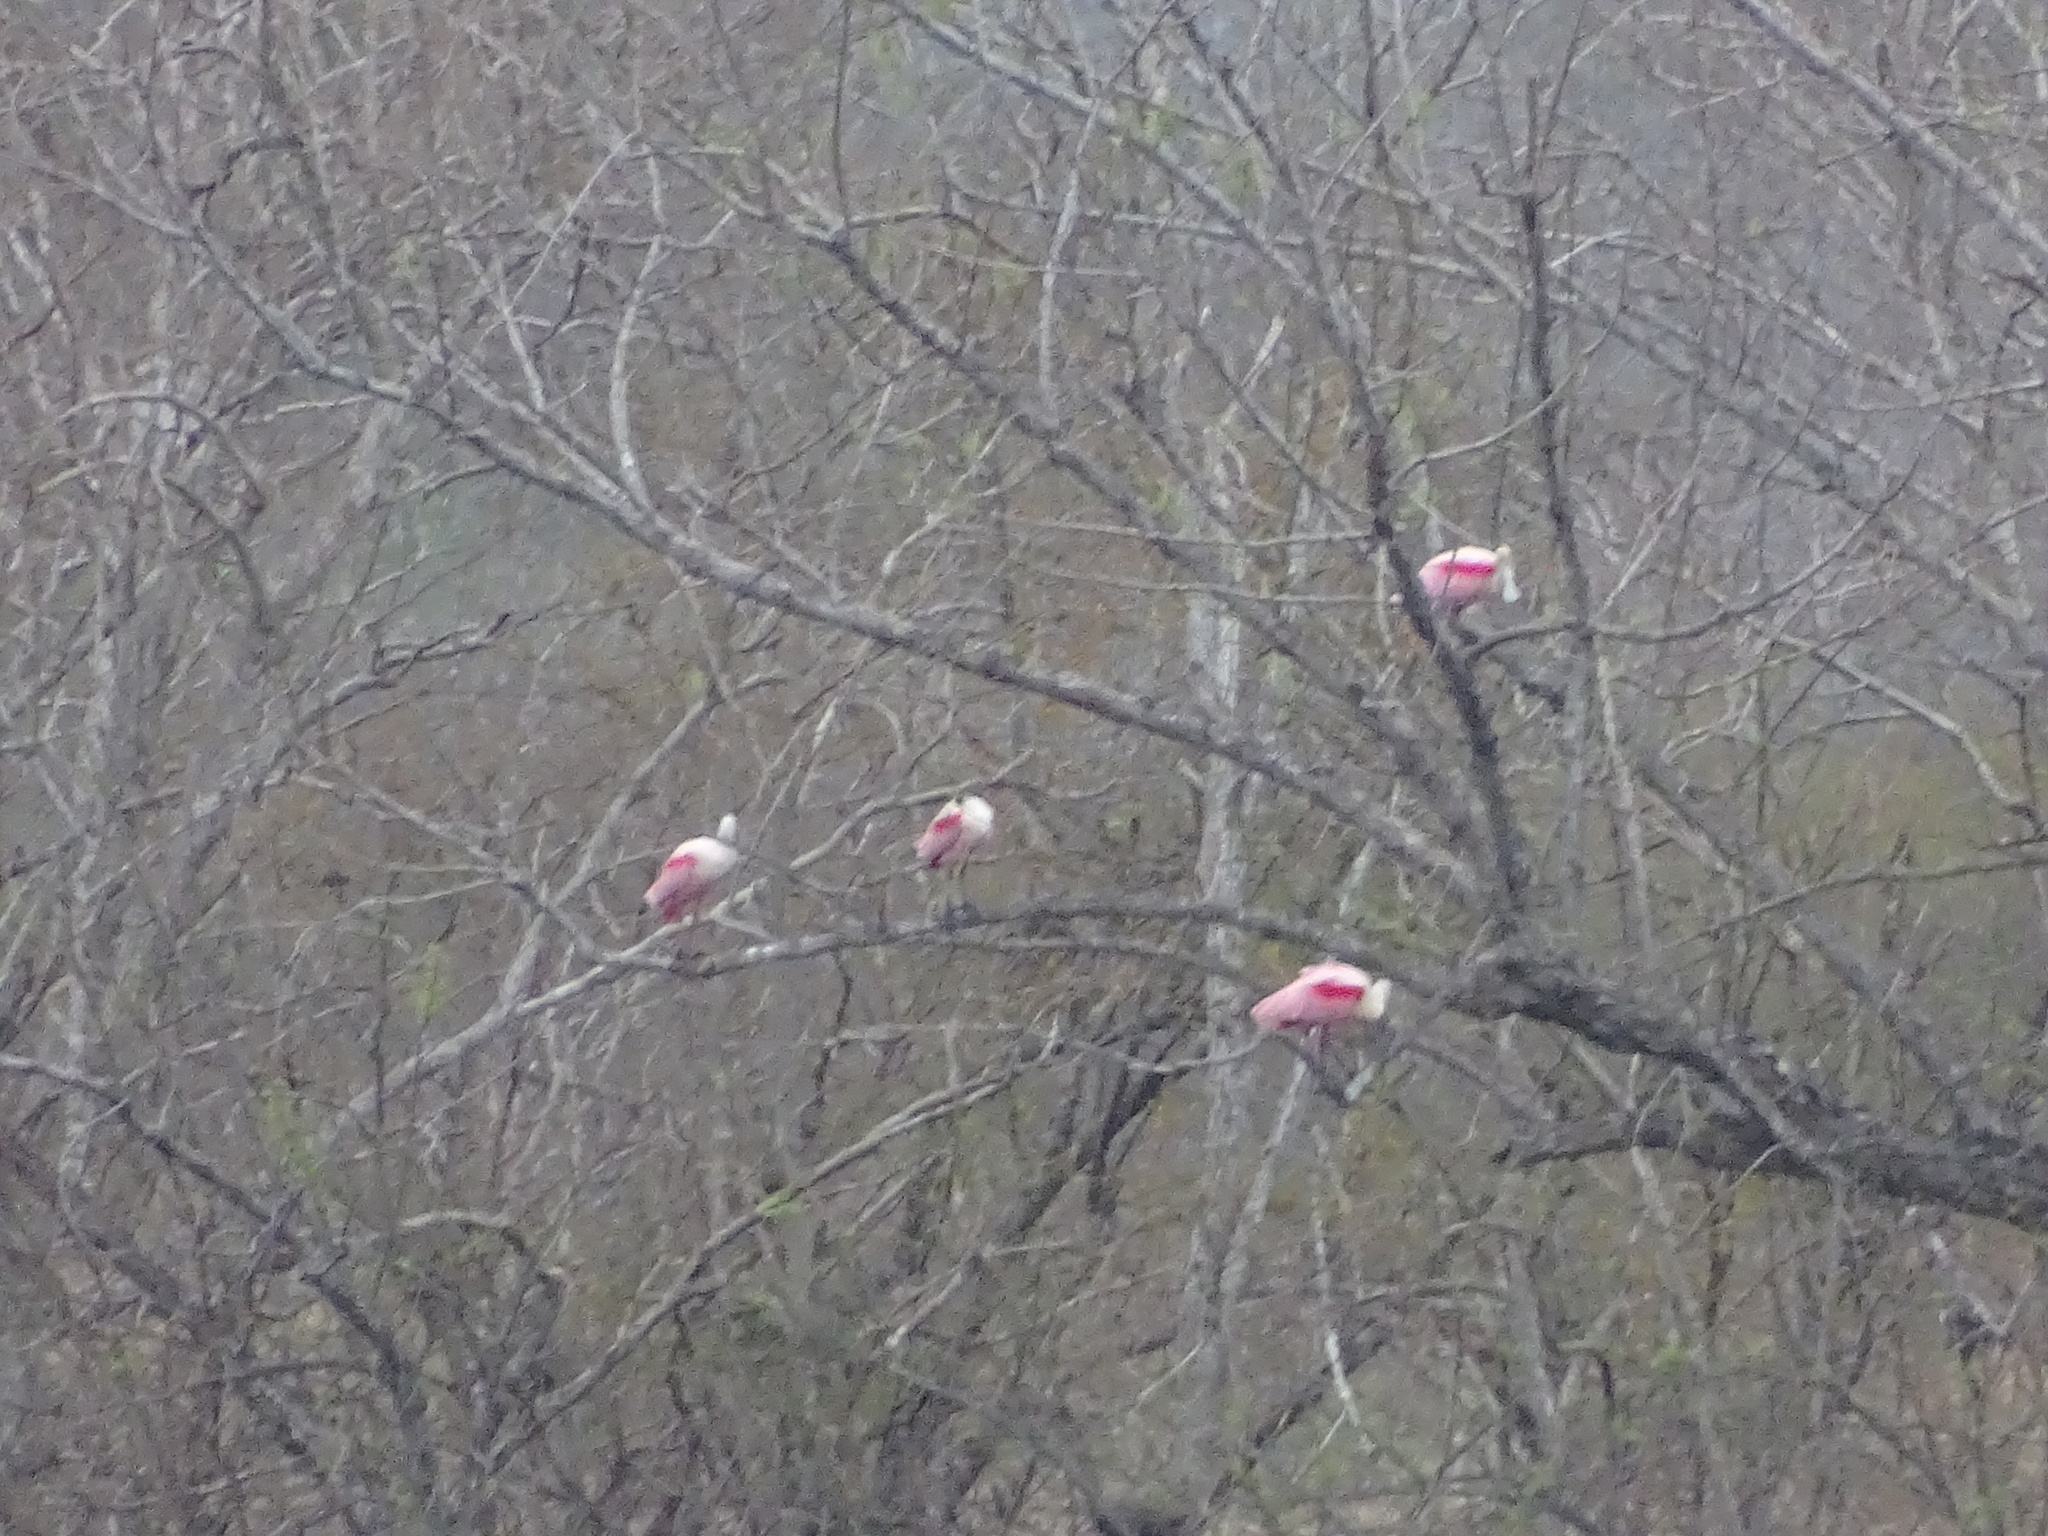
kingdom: Animalia
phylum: Chordata
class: Aves
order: Pelecaniformes
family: Threskiornithidae
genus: Platalea
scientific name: Platalea ajaja
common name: Roseate spoonbill
